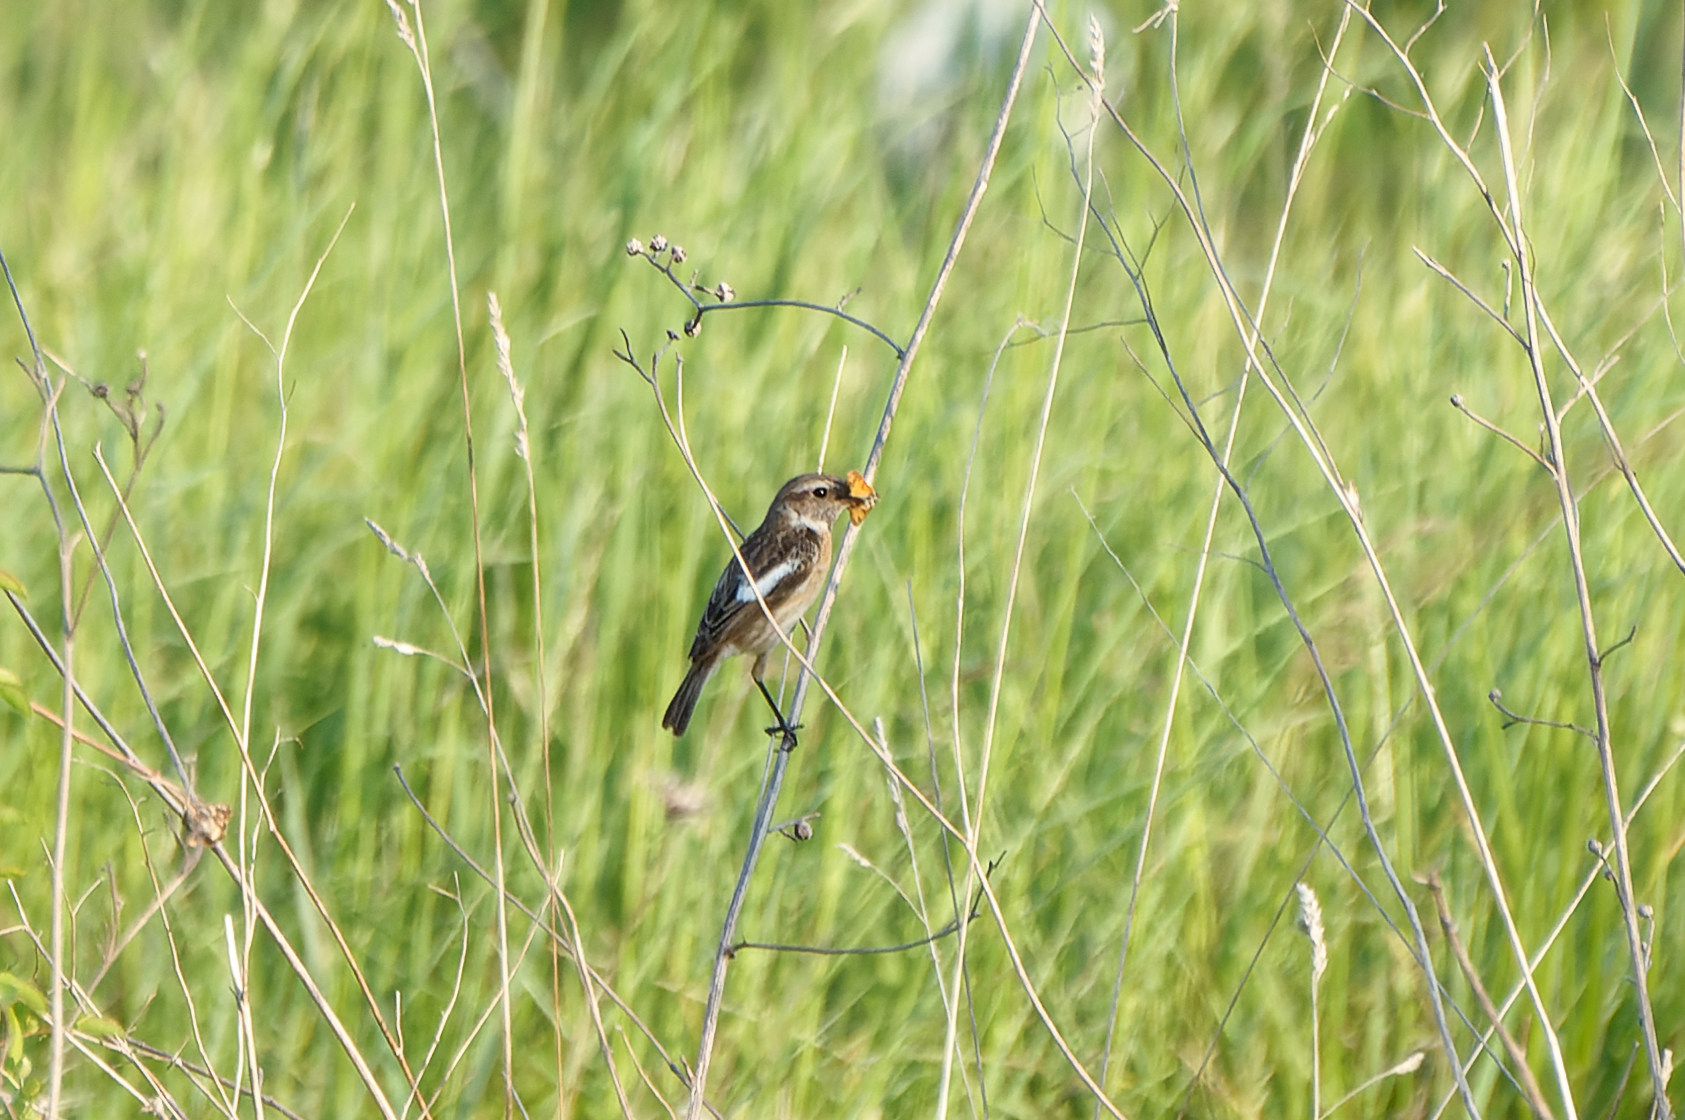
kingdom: Animalia
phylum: Chordata
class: Aves
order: Passeriformes
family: Muscicapidae
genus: Saxicola
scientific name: Saxicola rubicola
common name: European stonechat
